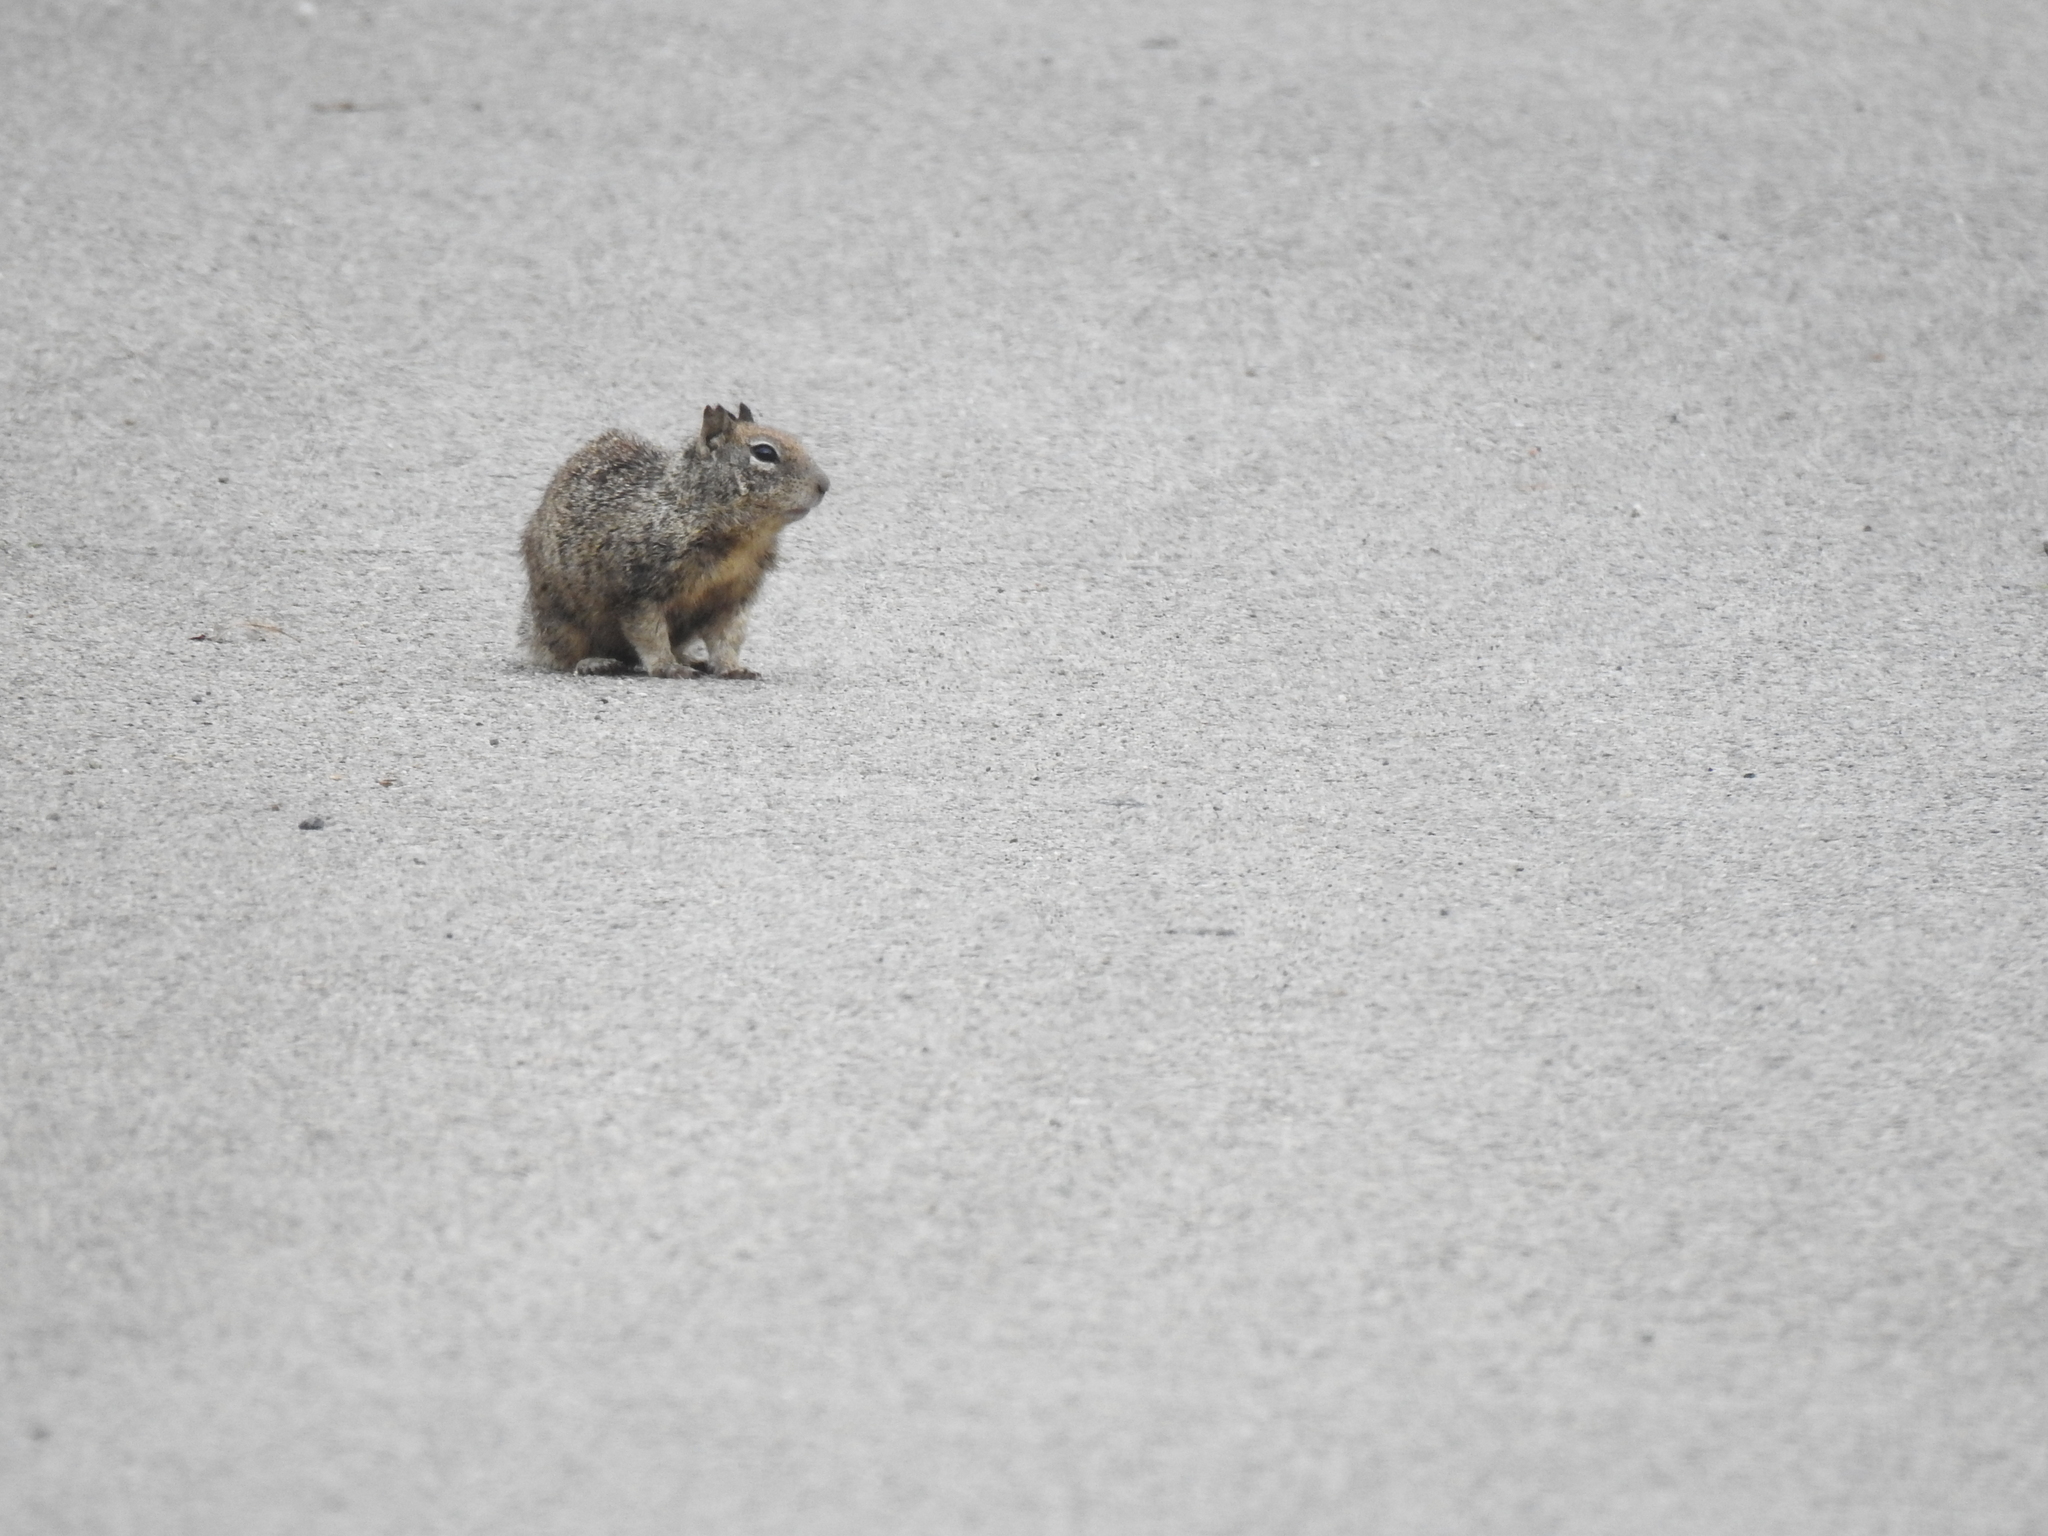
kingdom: Animalia
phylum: Chordata
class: Mammalia
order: Rodentia
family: Sciuridae
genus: Otospermophilus
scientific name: Otospermophilus beecheyi
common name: California ground squirrel
